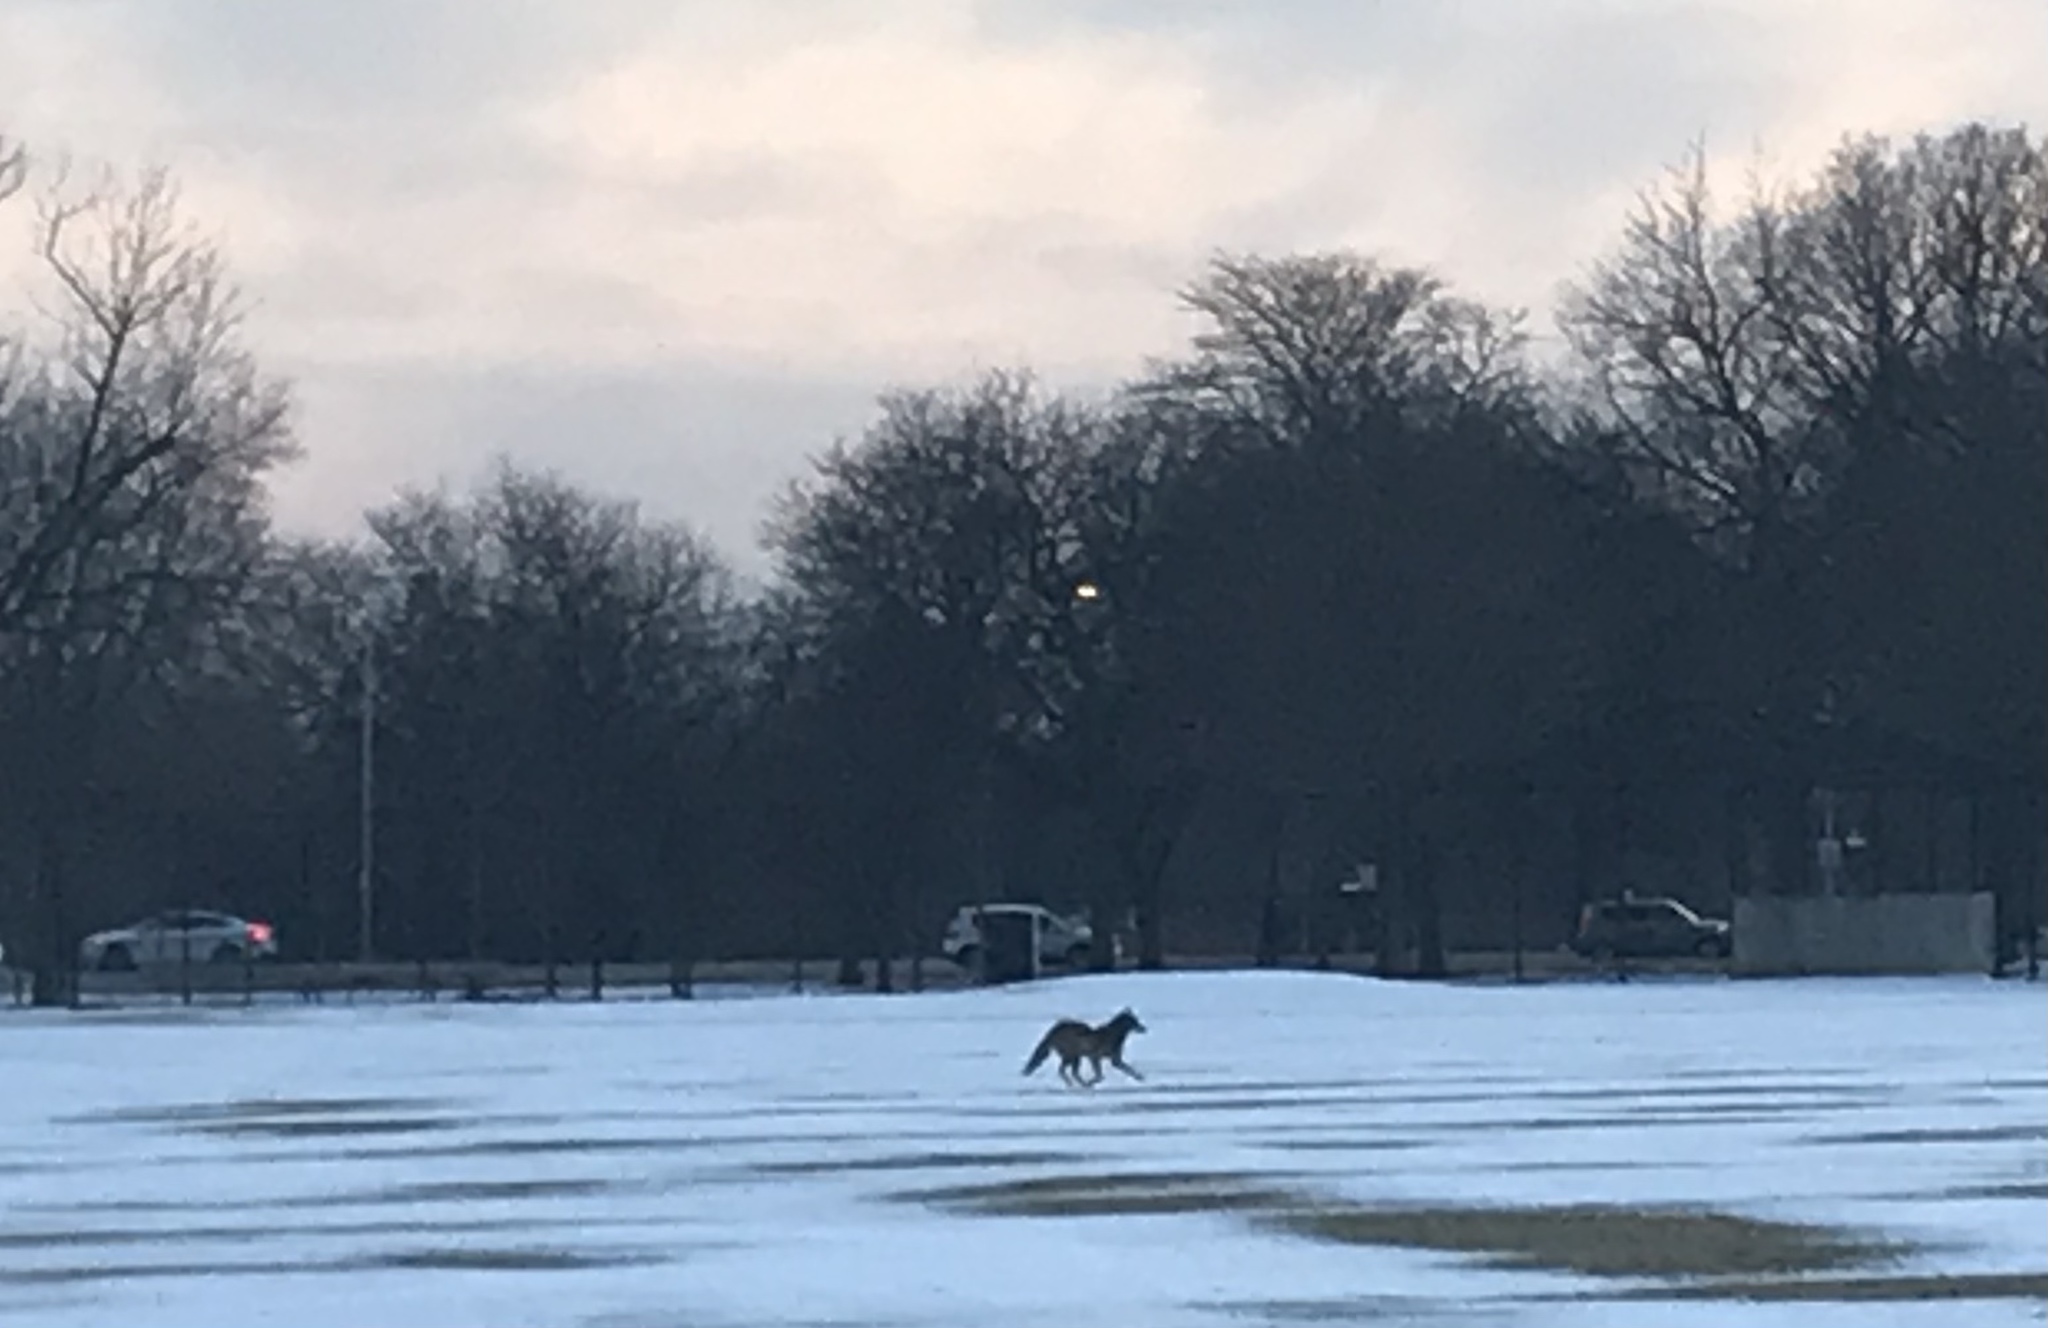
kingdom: Animalia
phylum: Chordata
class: Mammalia
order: Carnivora
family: Canidae
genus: Canis
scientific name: Canis latrans
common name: Coyote
